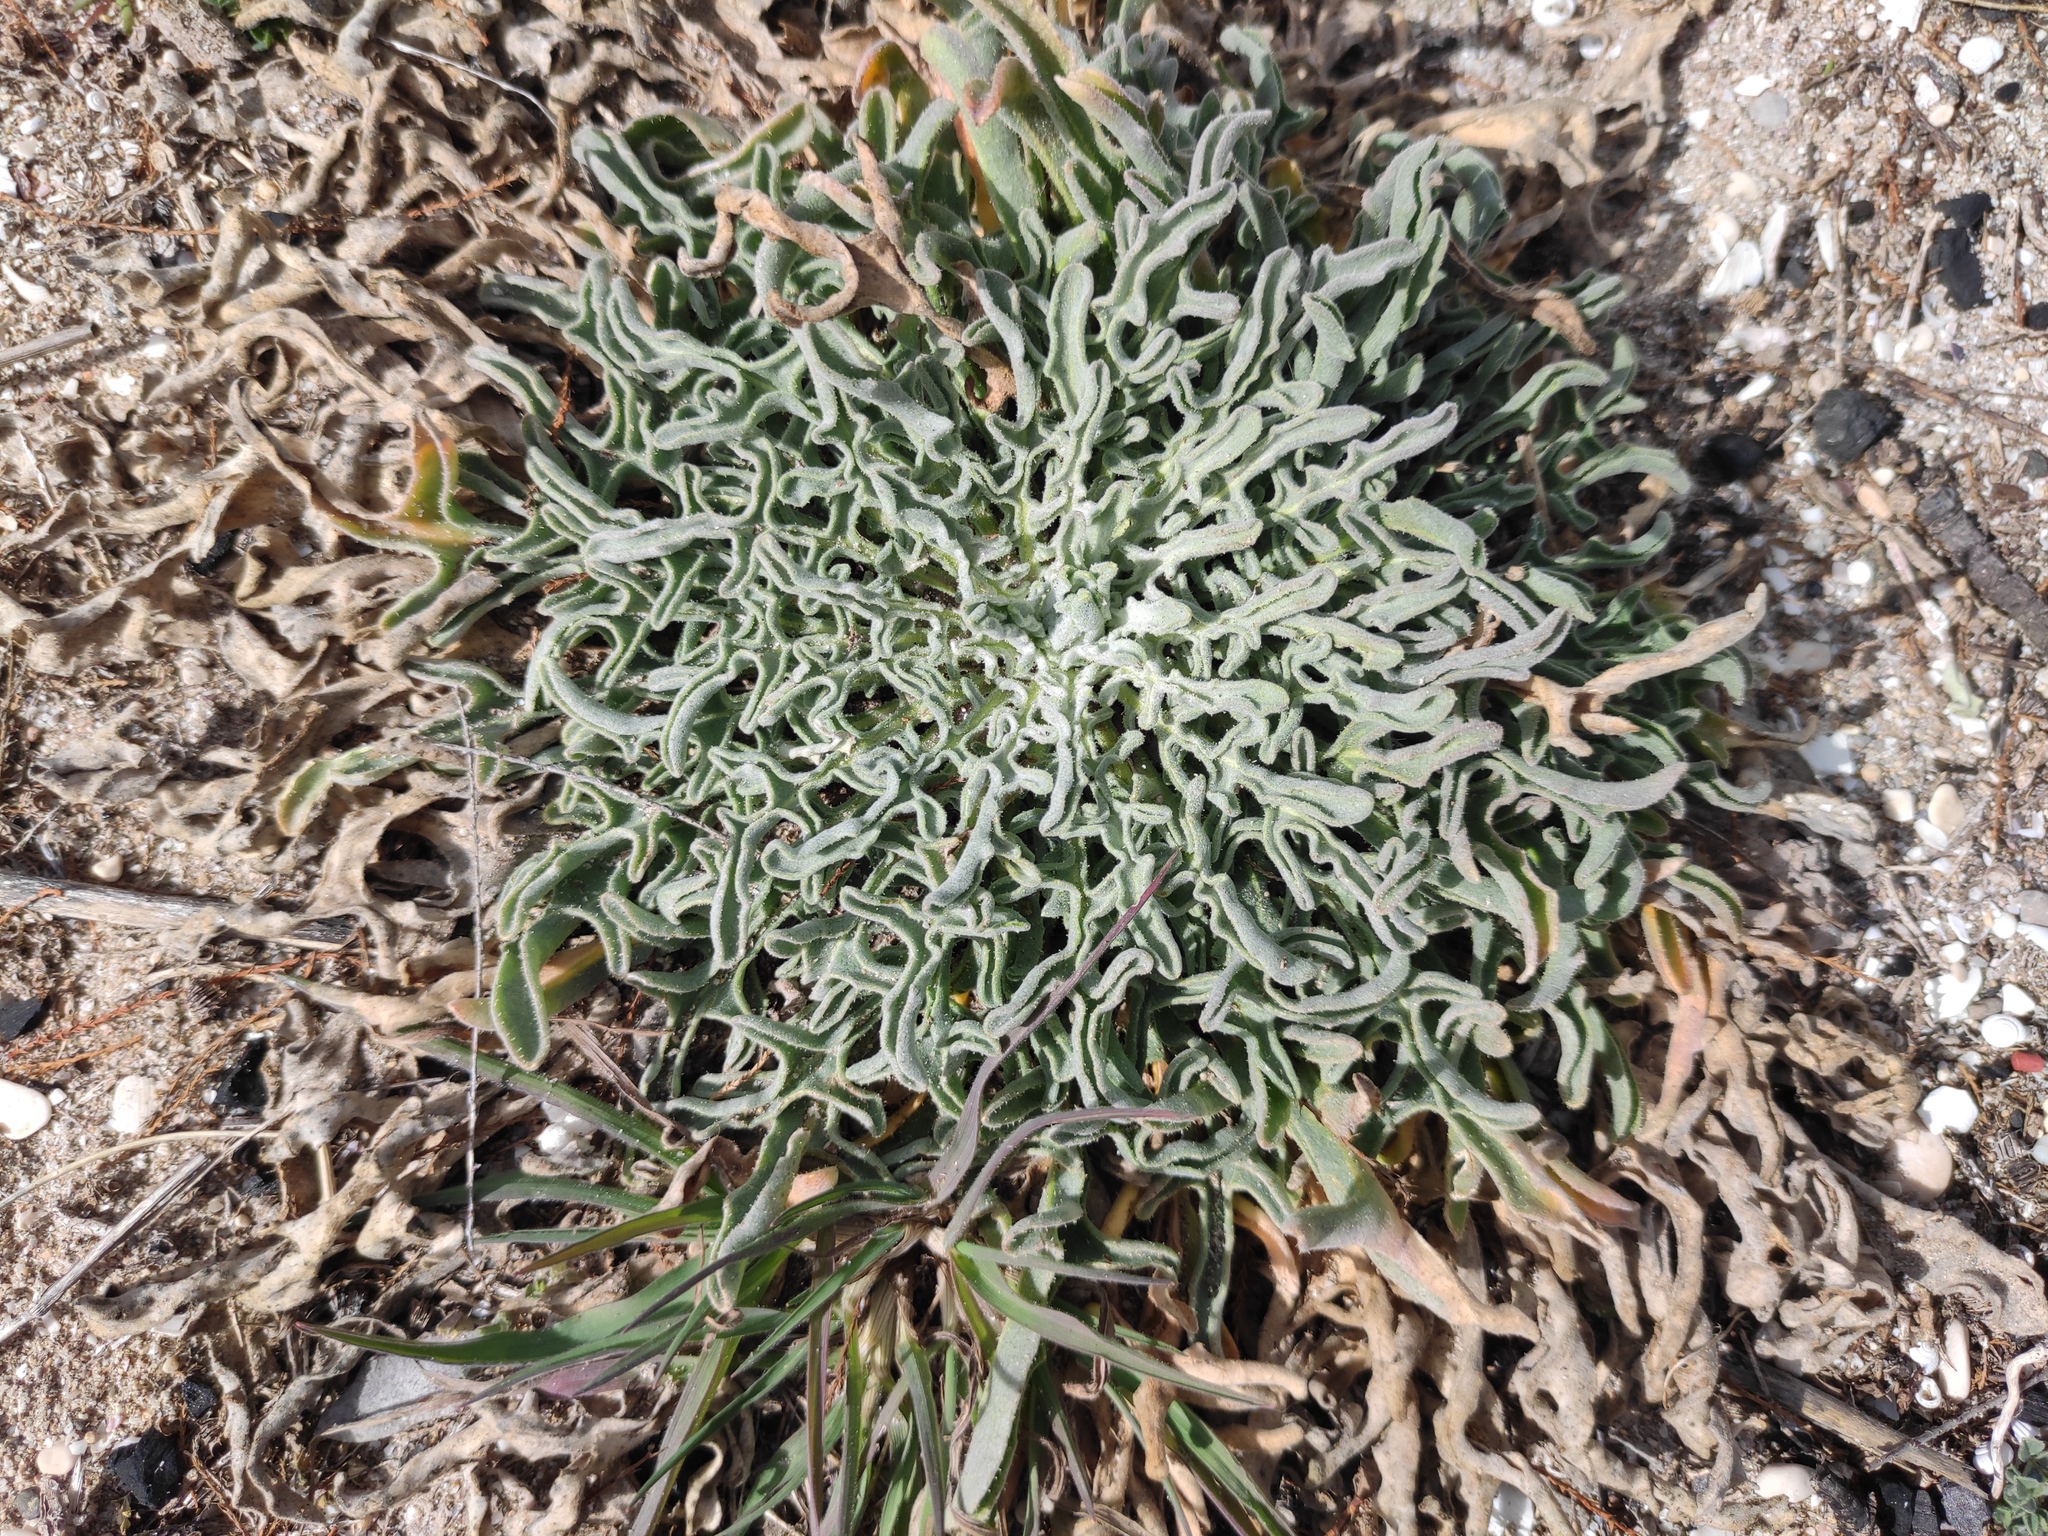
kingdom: Plantae
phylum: Tracheophyta
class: Magnoliopsida
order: Brassicales
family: Brassicaceae
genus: Matthiola
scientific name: Matthiola sinuata
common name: Sea stock
